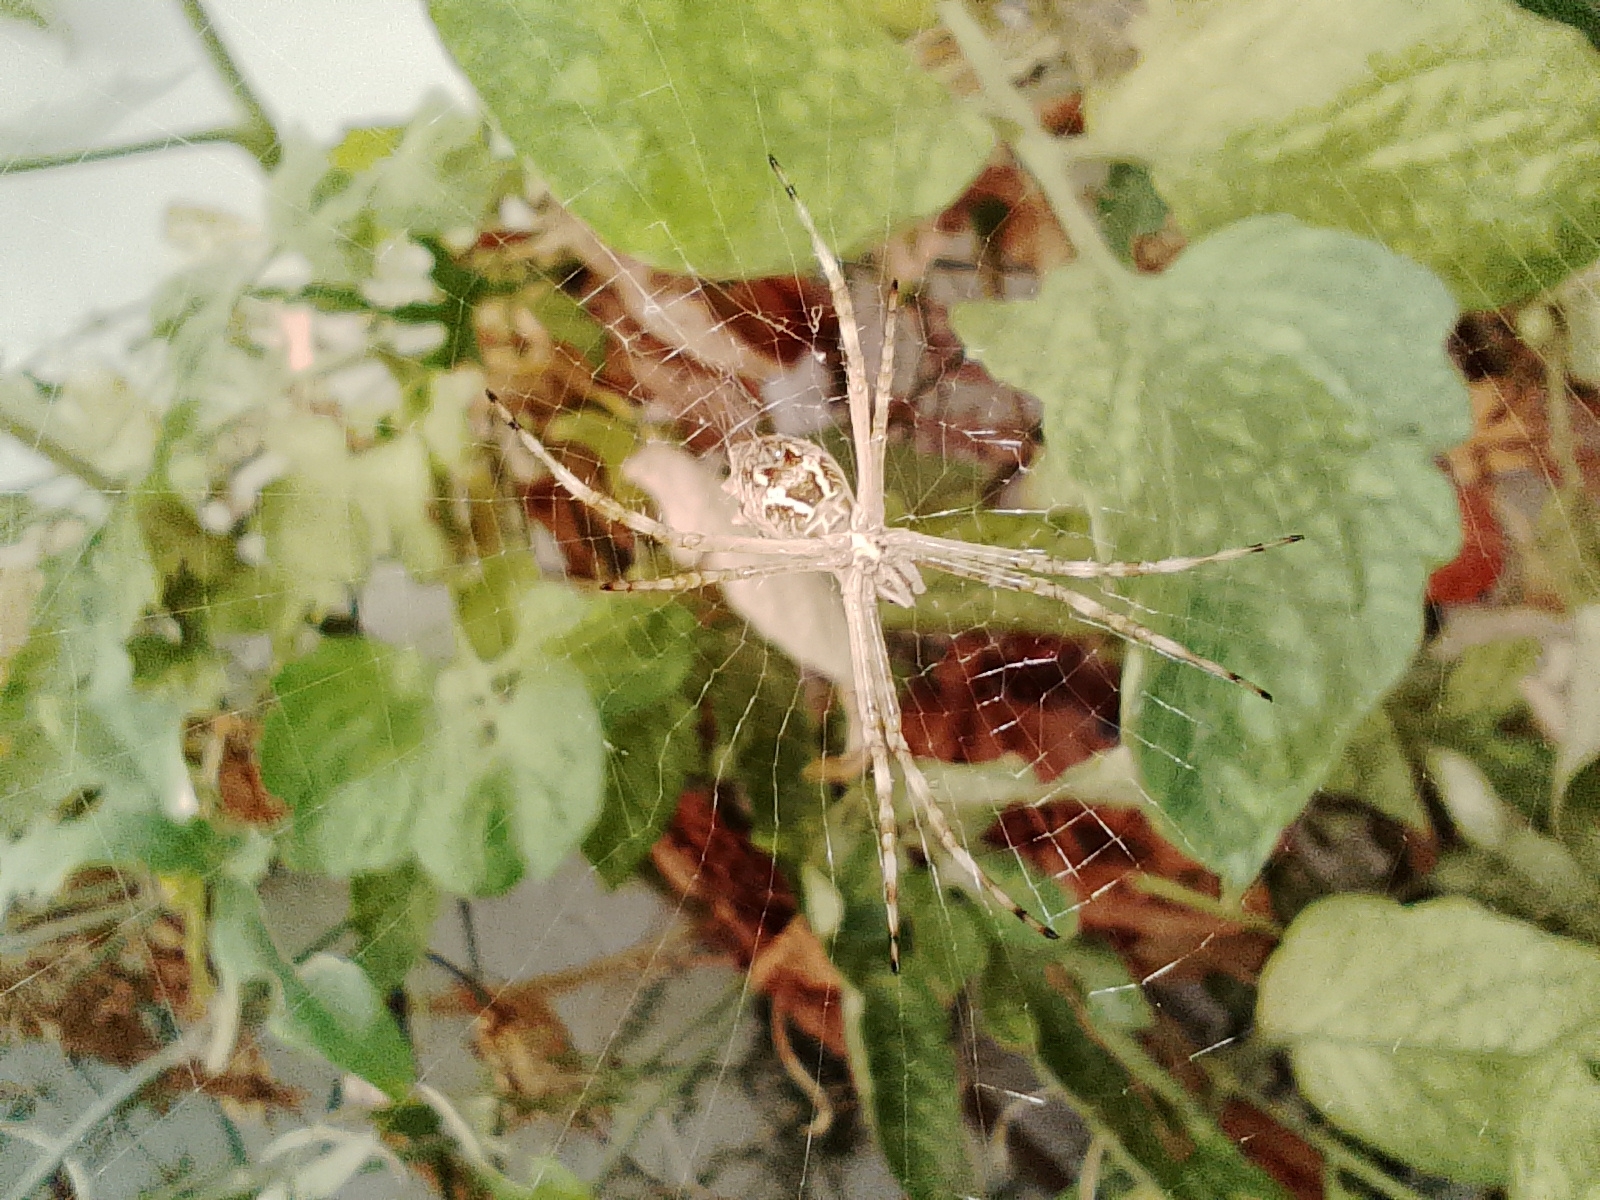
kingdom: Animalia
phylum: Arthropoda
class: Arachnida
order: Araneae
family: Araneidae
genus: Argiope
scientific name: Argiope argentata
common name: Orb weavers
